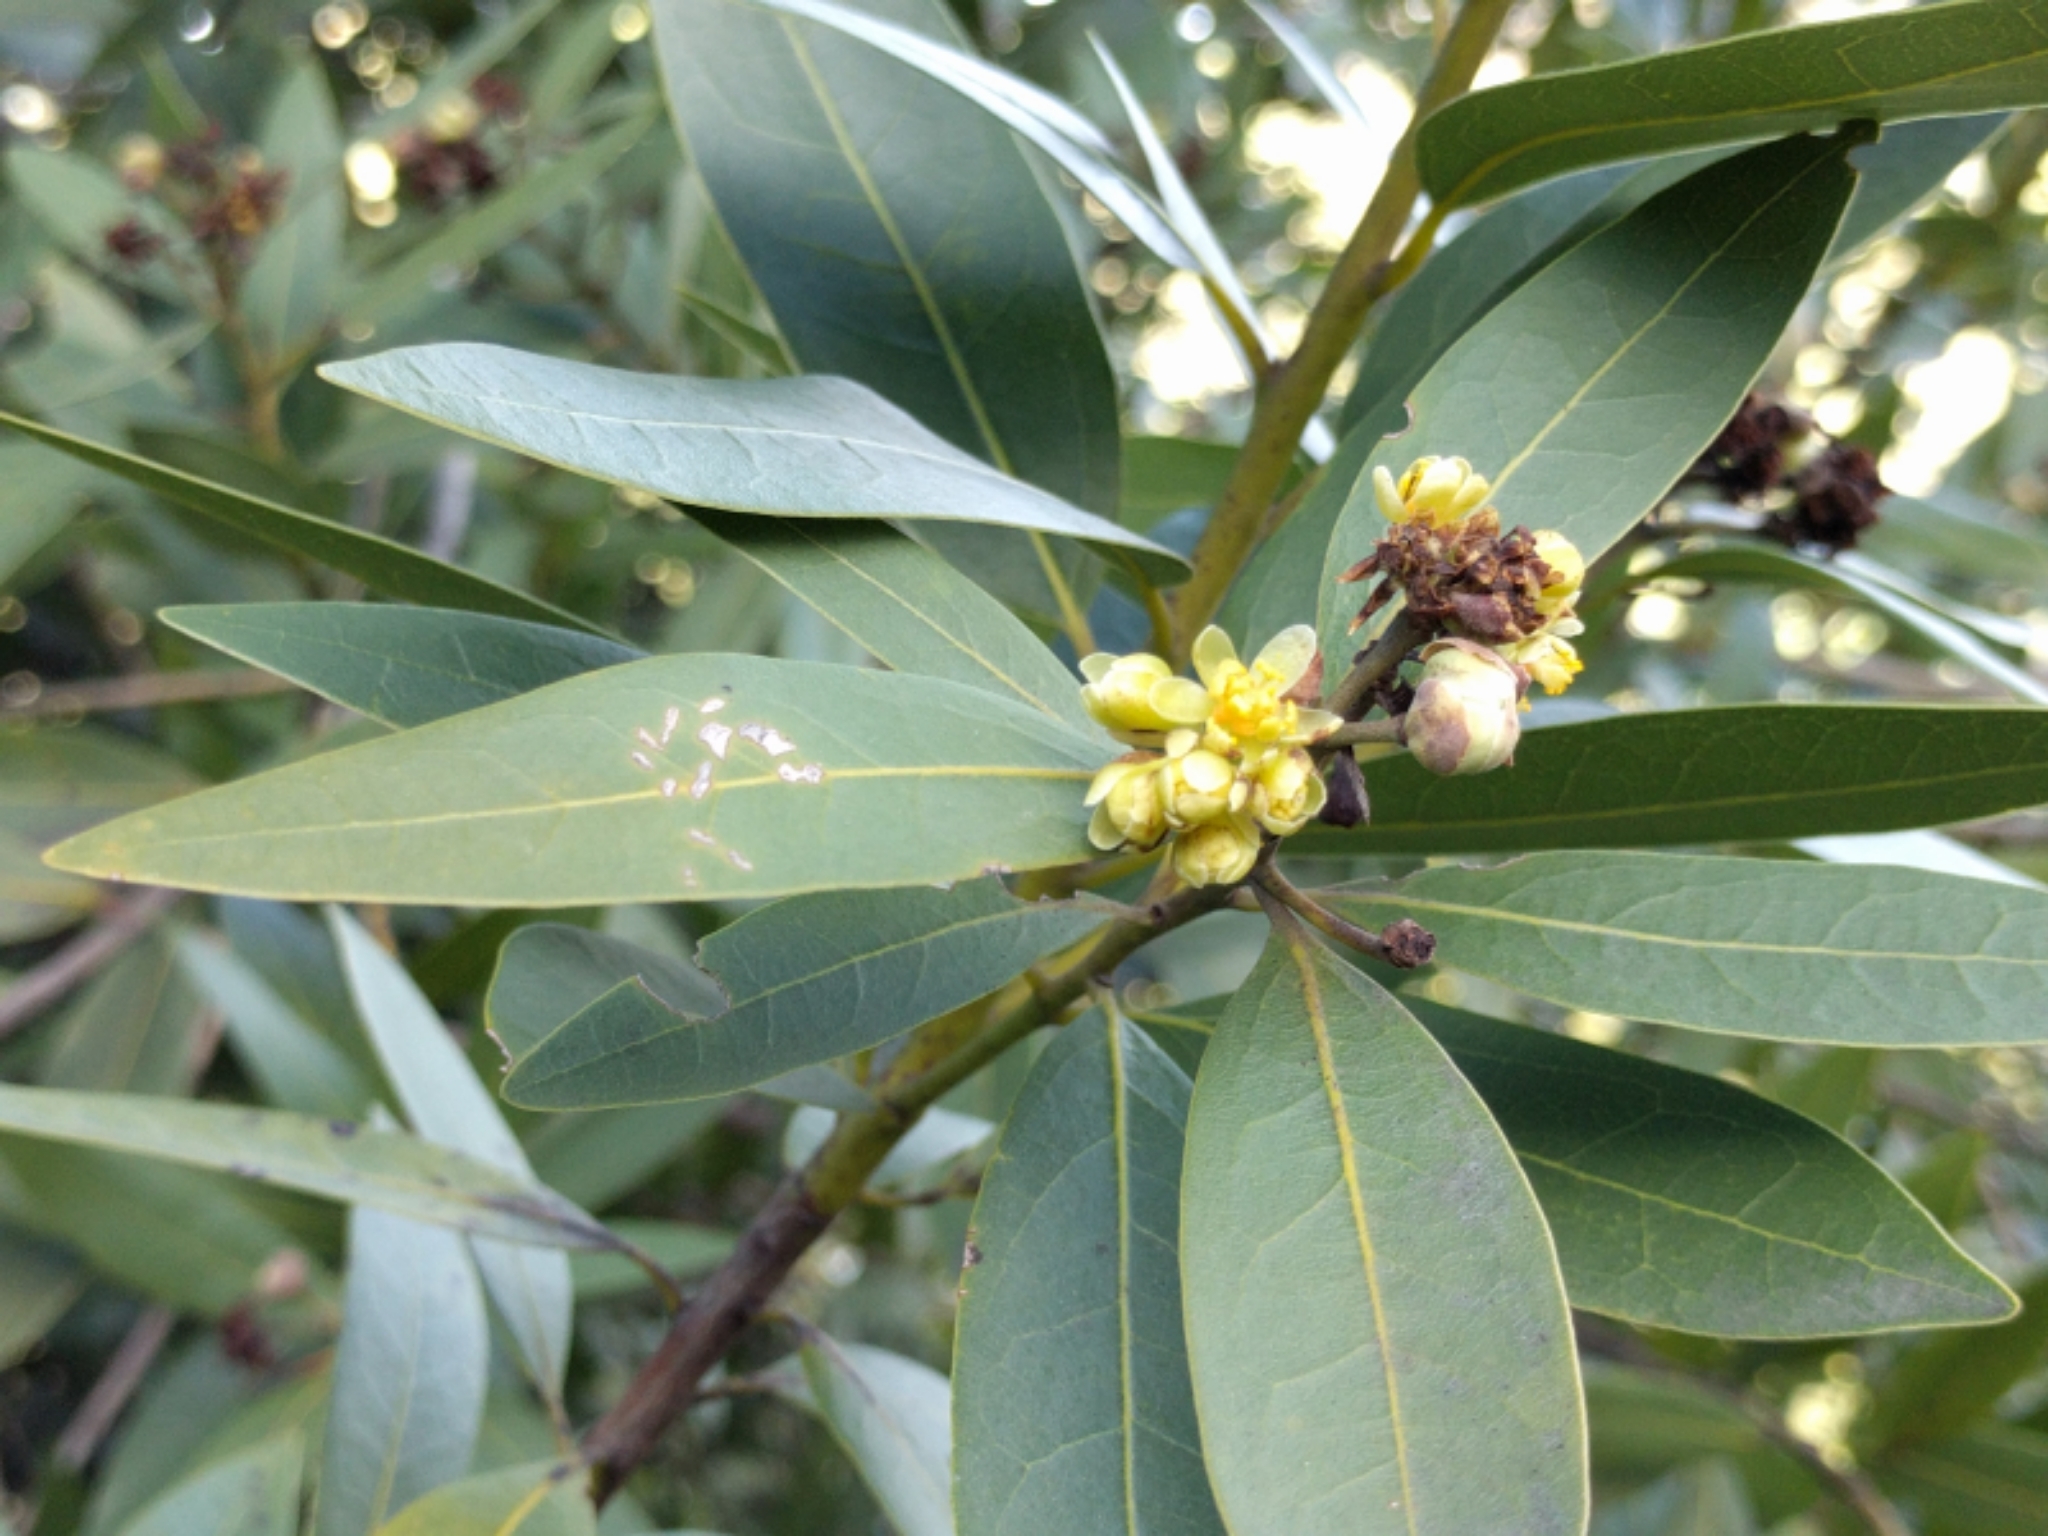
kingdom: Plantae
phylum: Tracheophyta
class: Magnoliopsida
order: Laurales
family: Lauraceae
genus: Umbellularia
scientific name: Umbellularia californica
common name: California bay
